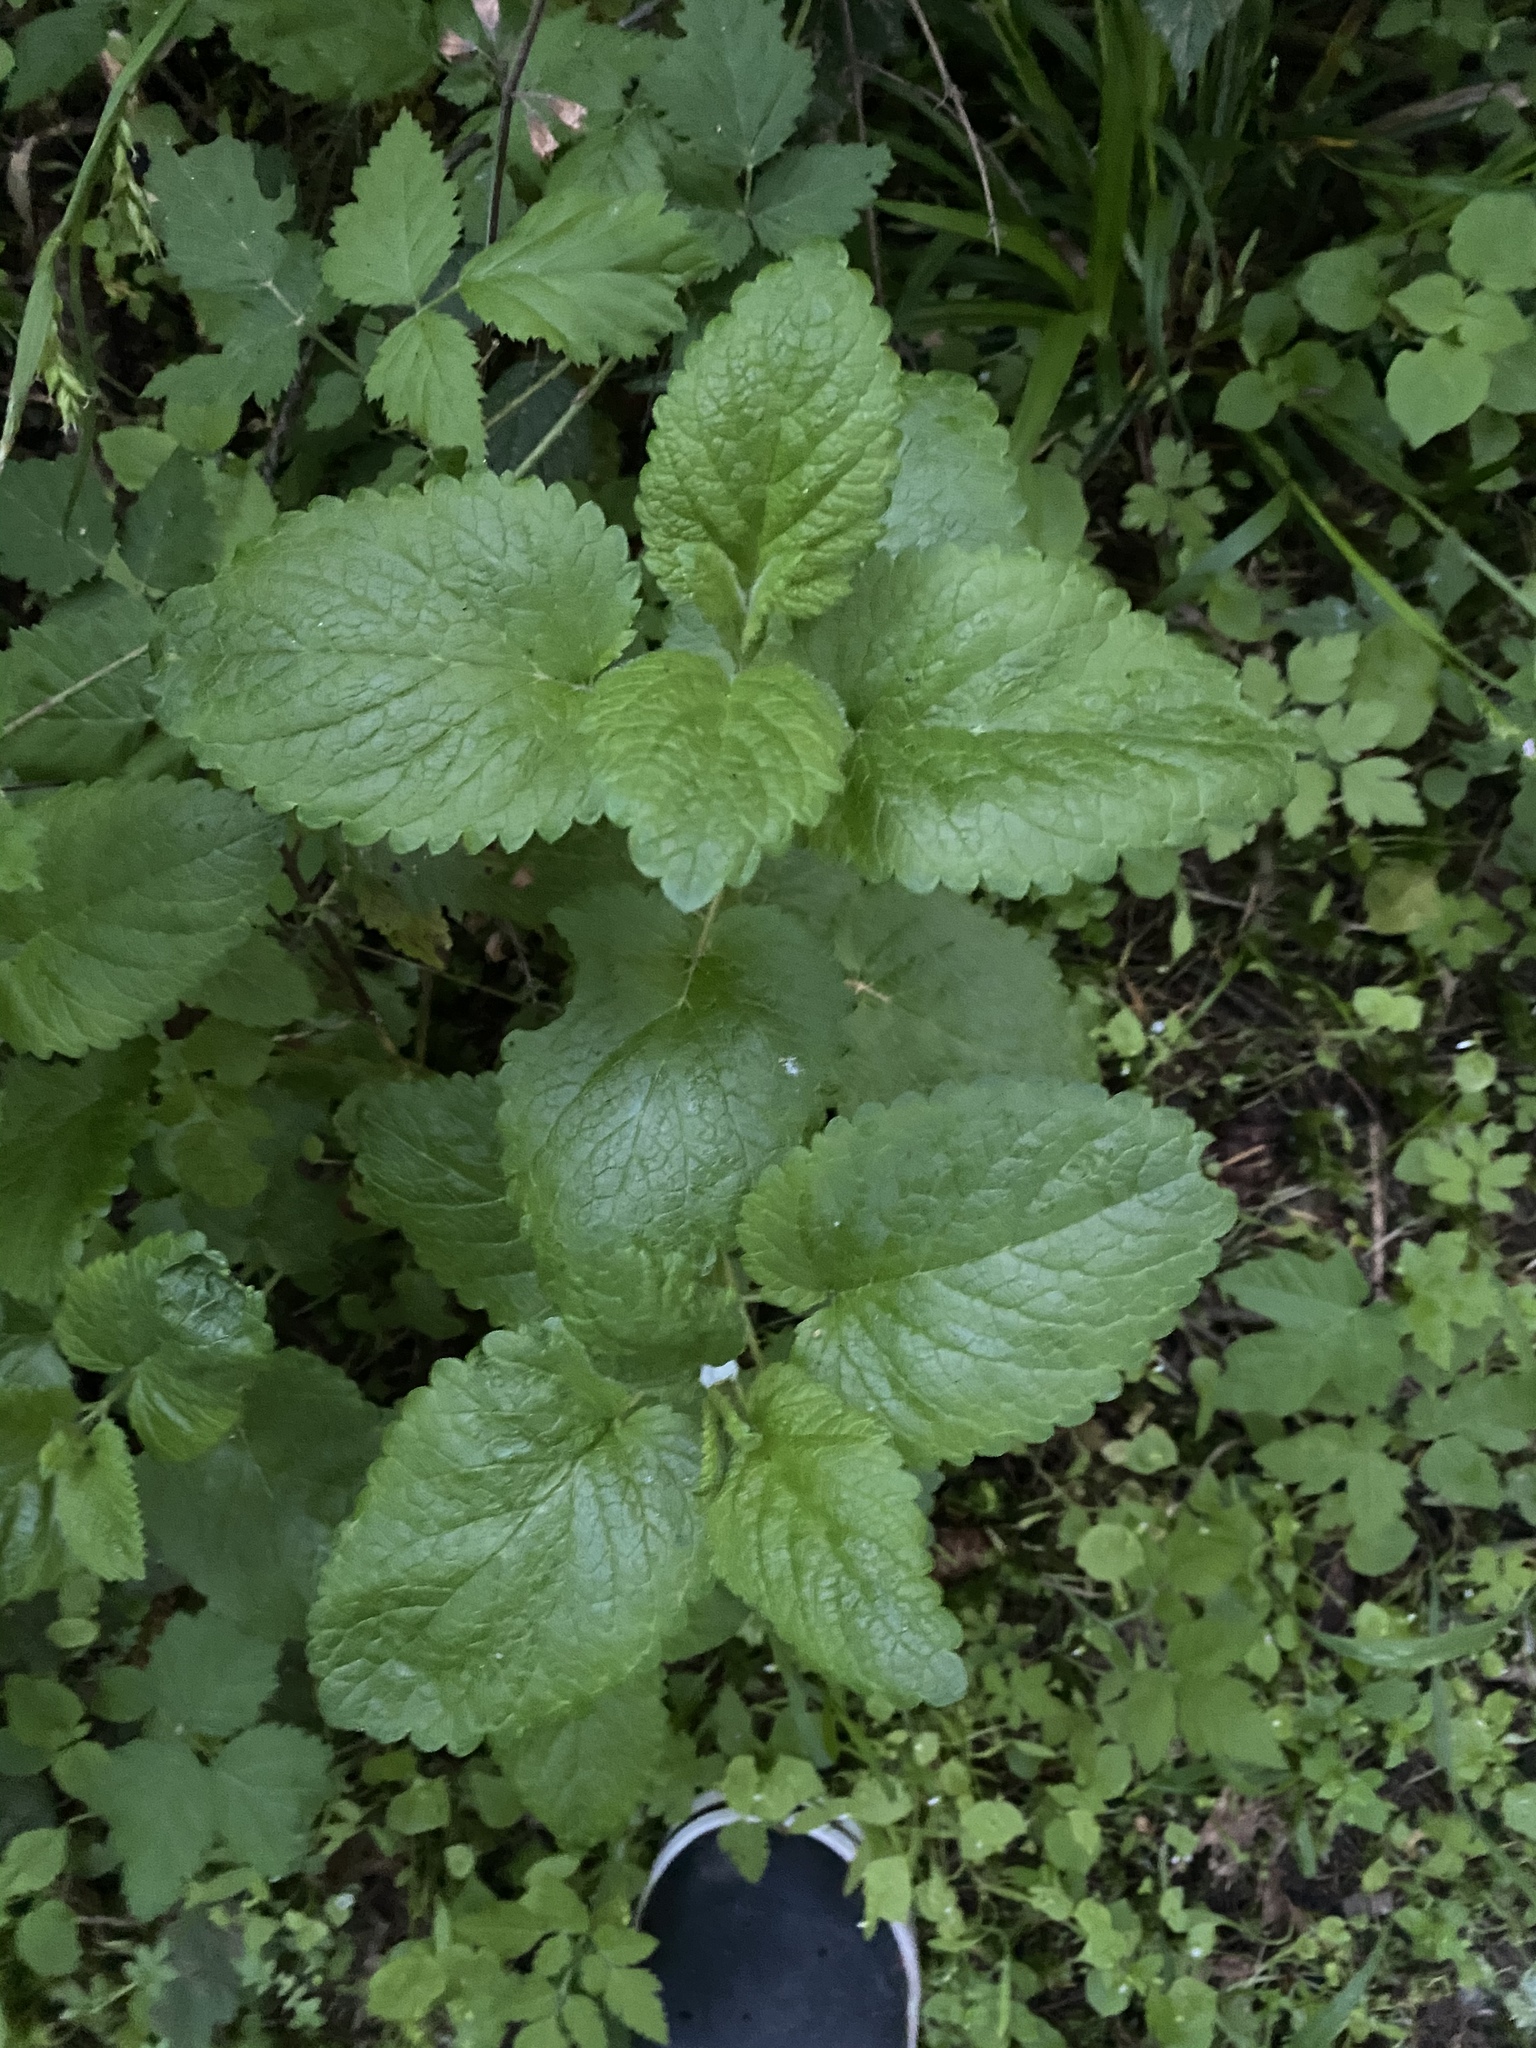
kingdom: Plantae
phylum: Tracheophyta
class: Magnoliopsida
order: Lamiales
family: Lamiaceae
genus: Melissa
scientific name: Melissa officinalis
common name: Balm
